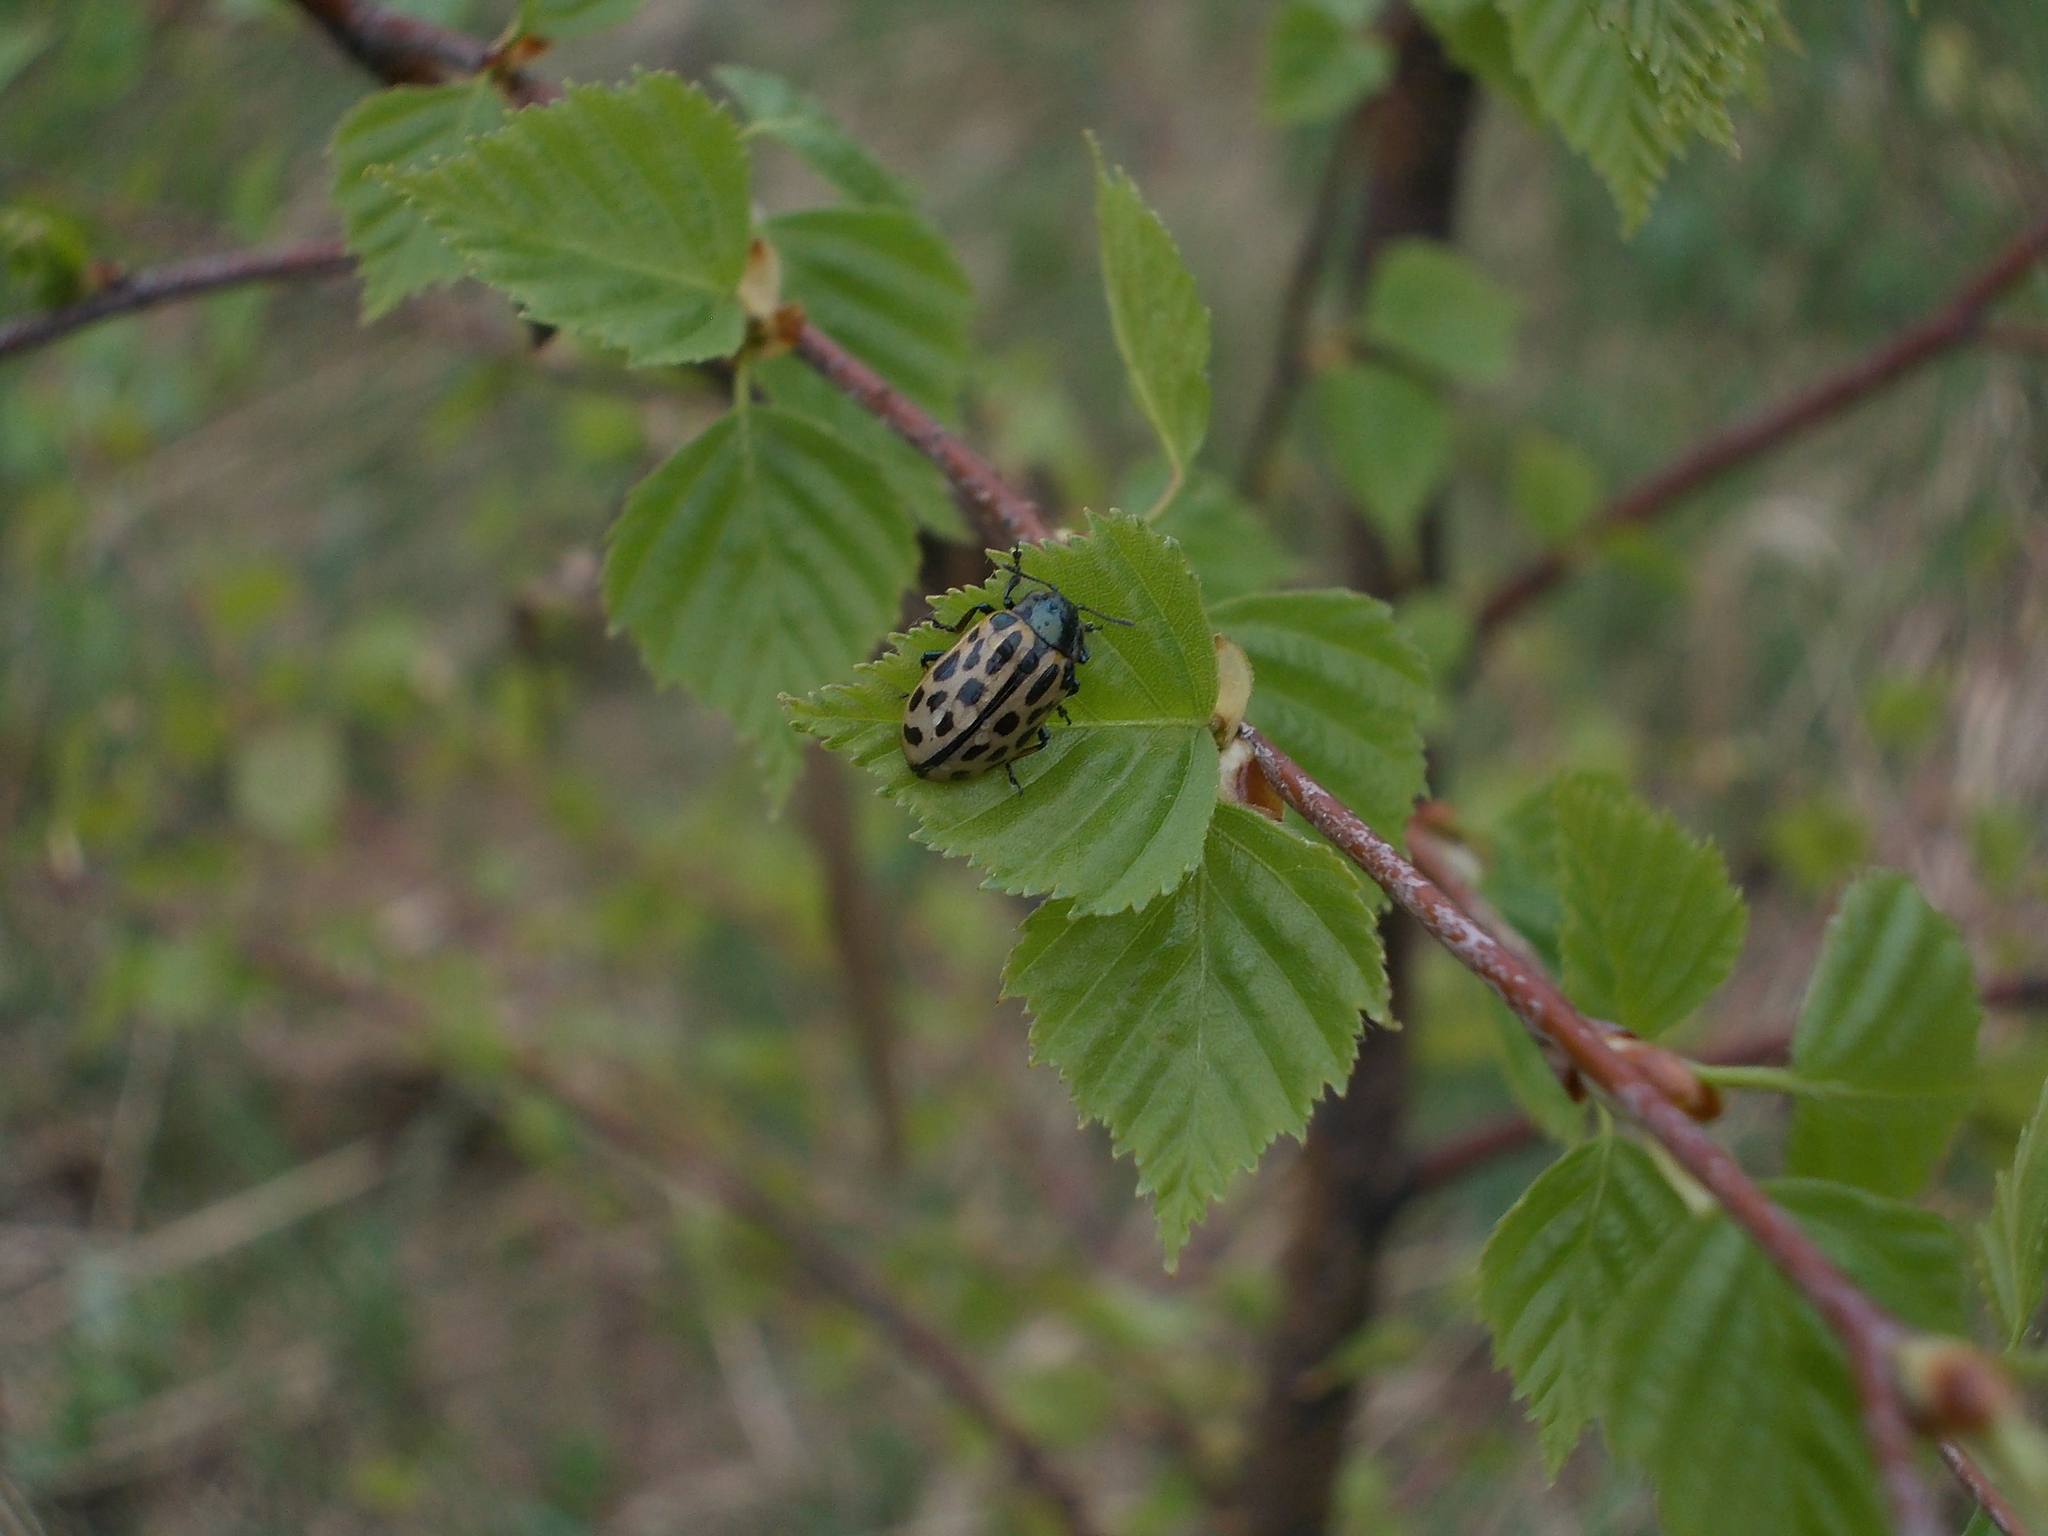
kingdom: Animalia
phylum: Arthropoda
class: Insecta
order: Coleoptera
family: Chrysomelidae
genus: Chrysomela
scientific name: Chrysomela vigintipunctata
